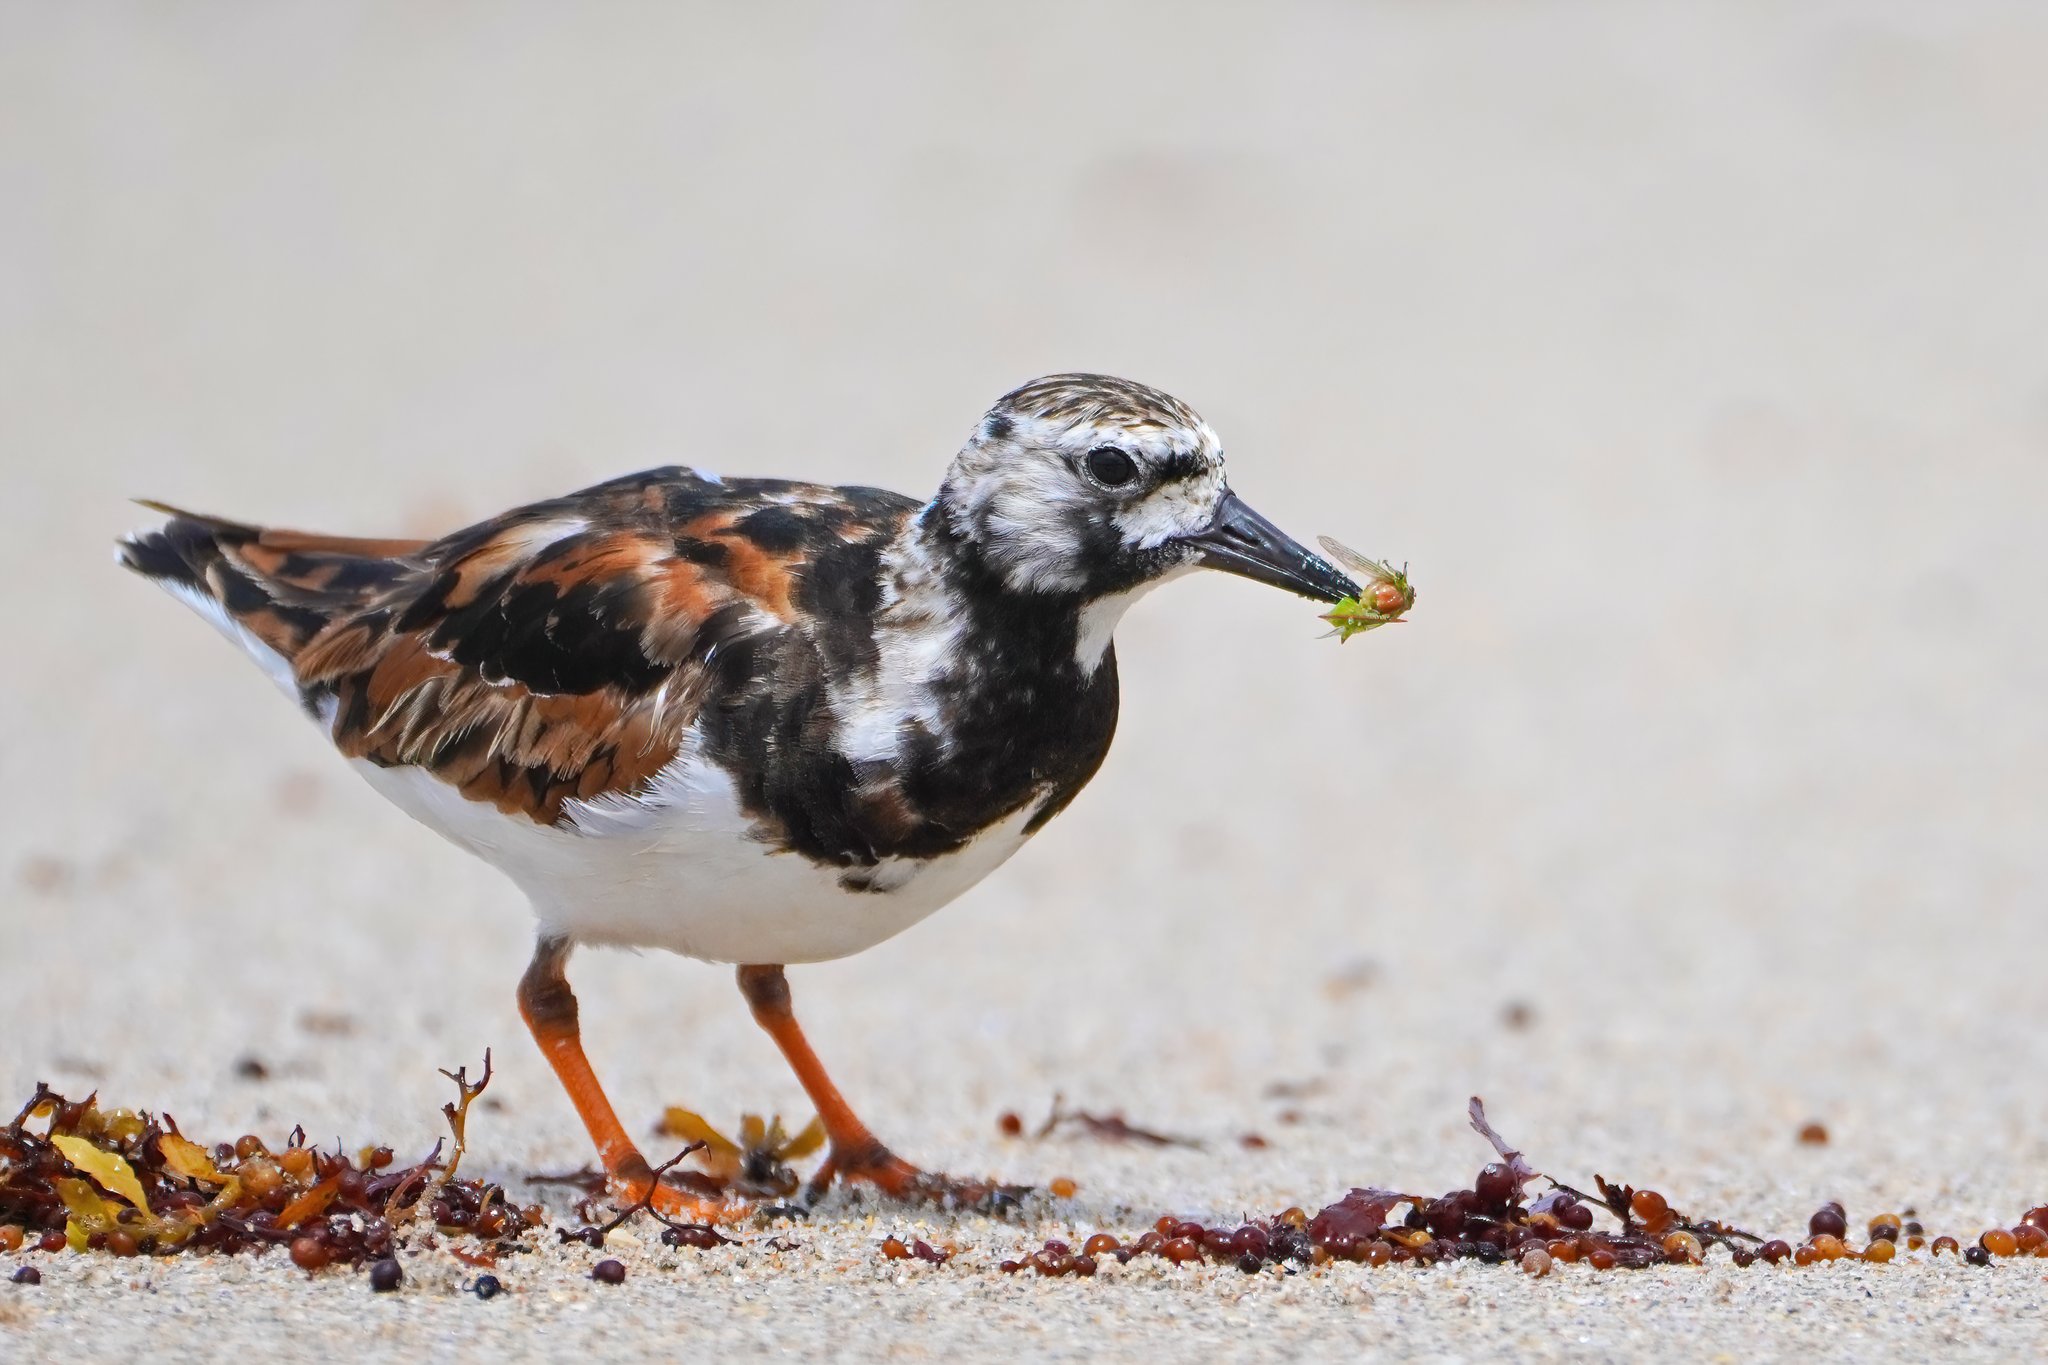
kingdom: Animalia
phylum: Chordata
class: Aves
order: Charadriiformes
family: Scolopacidae
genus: Arenaria
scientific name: Arenaria interpres
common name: Ruddy turnstone
